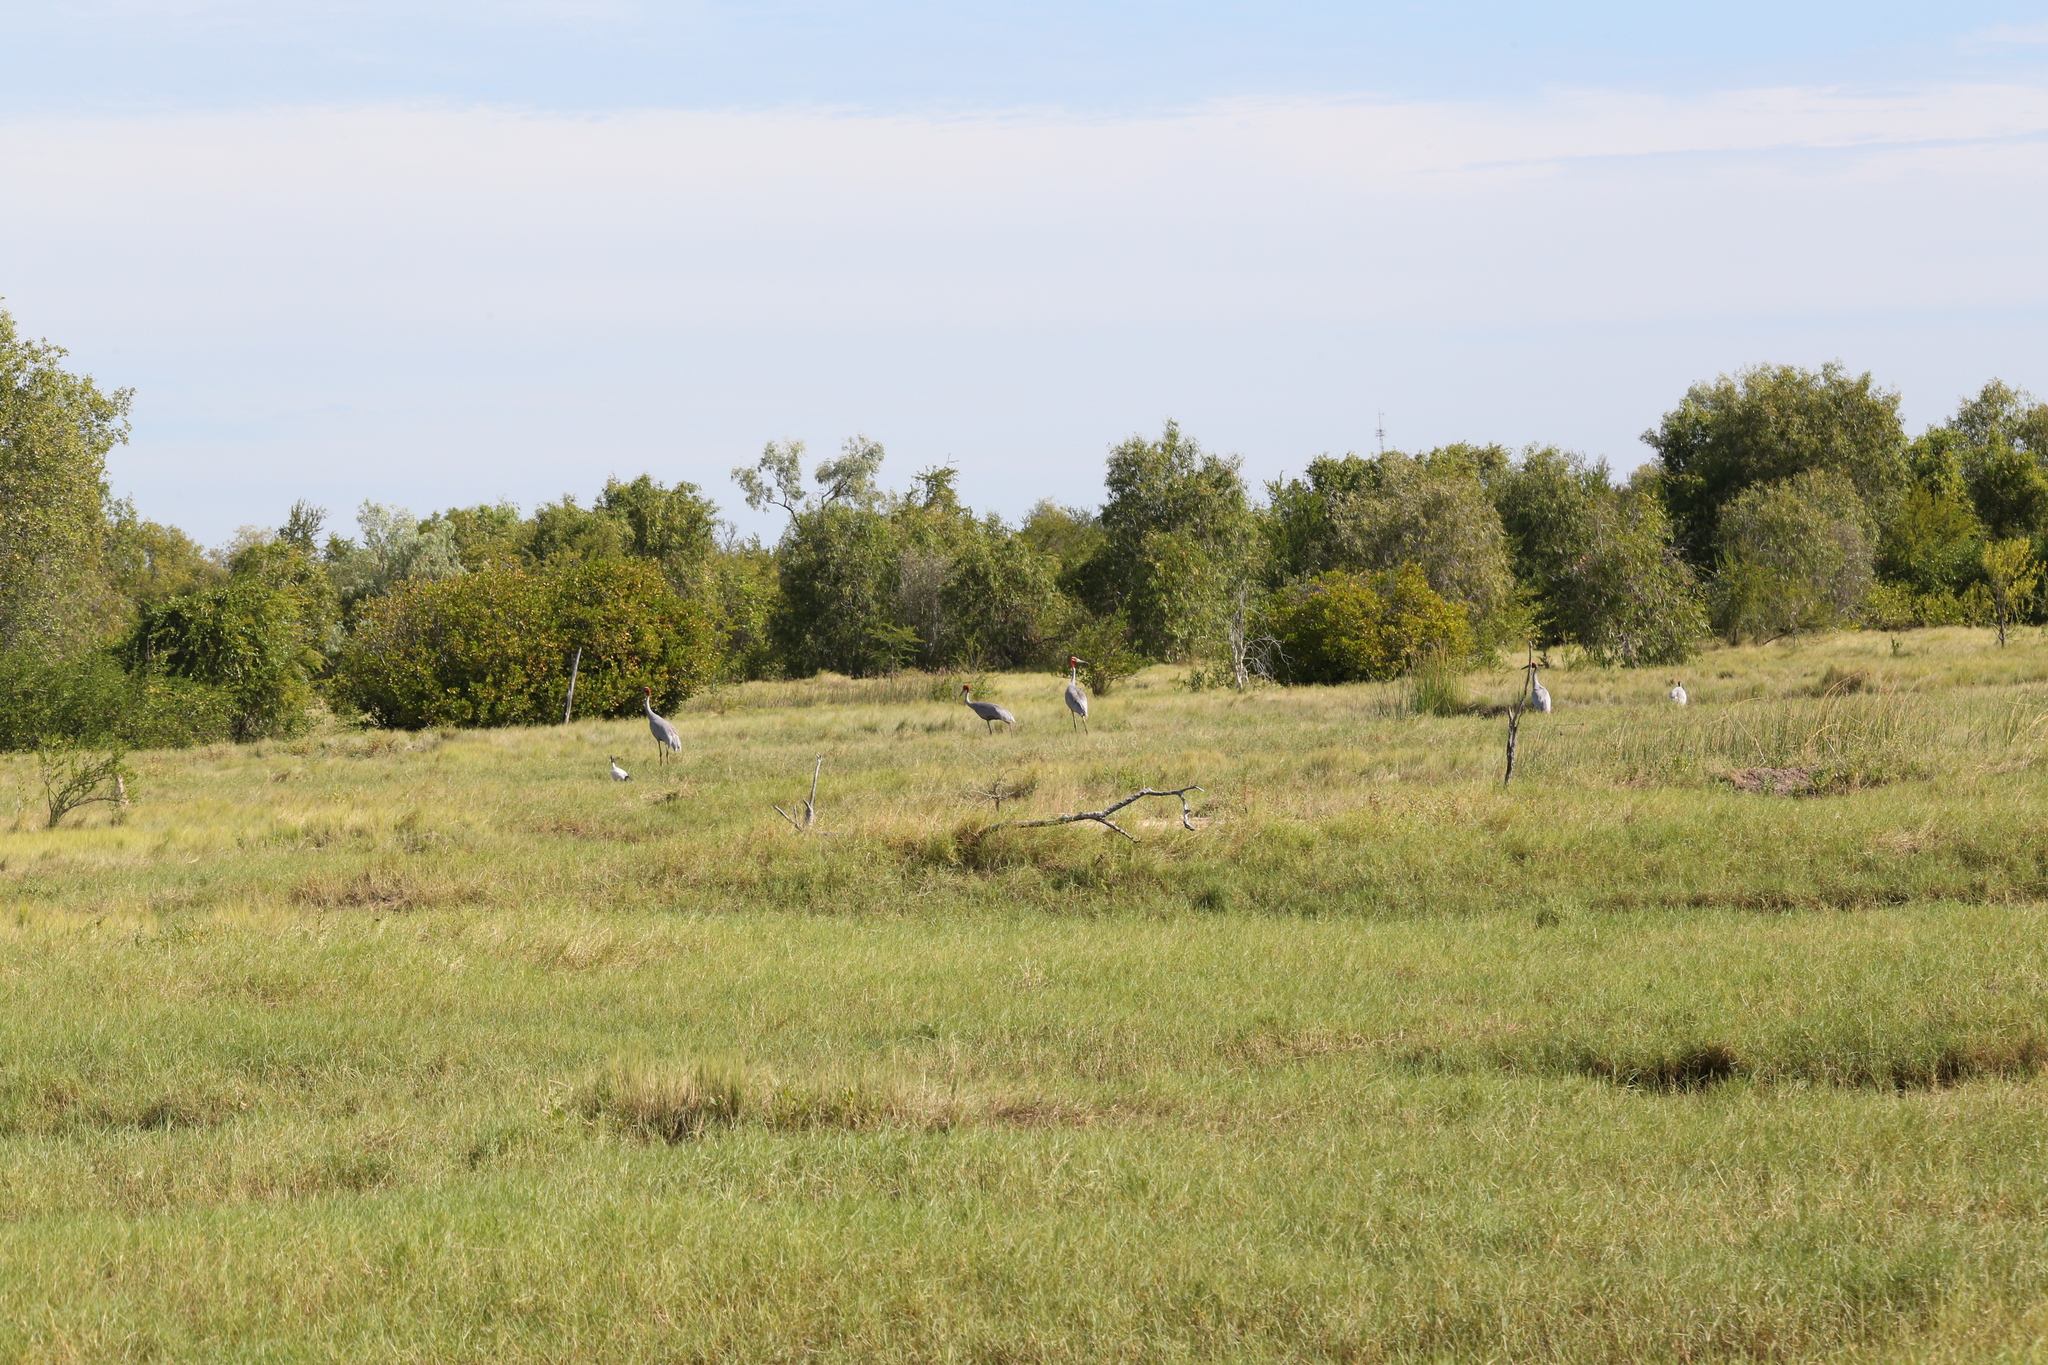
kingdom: Animalia
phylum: Chordata
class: Aves
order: Gruiformes
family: Gruidae
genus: Grus
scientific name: Grus rubicunda
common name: Brolga
